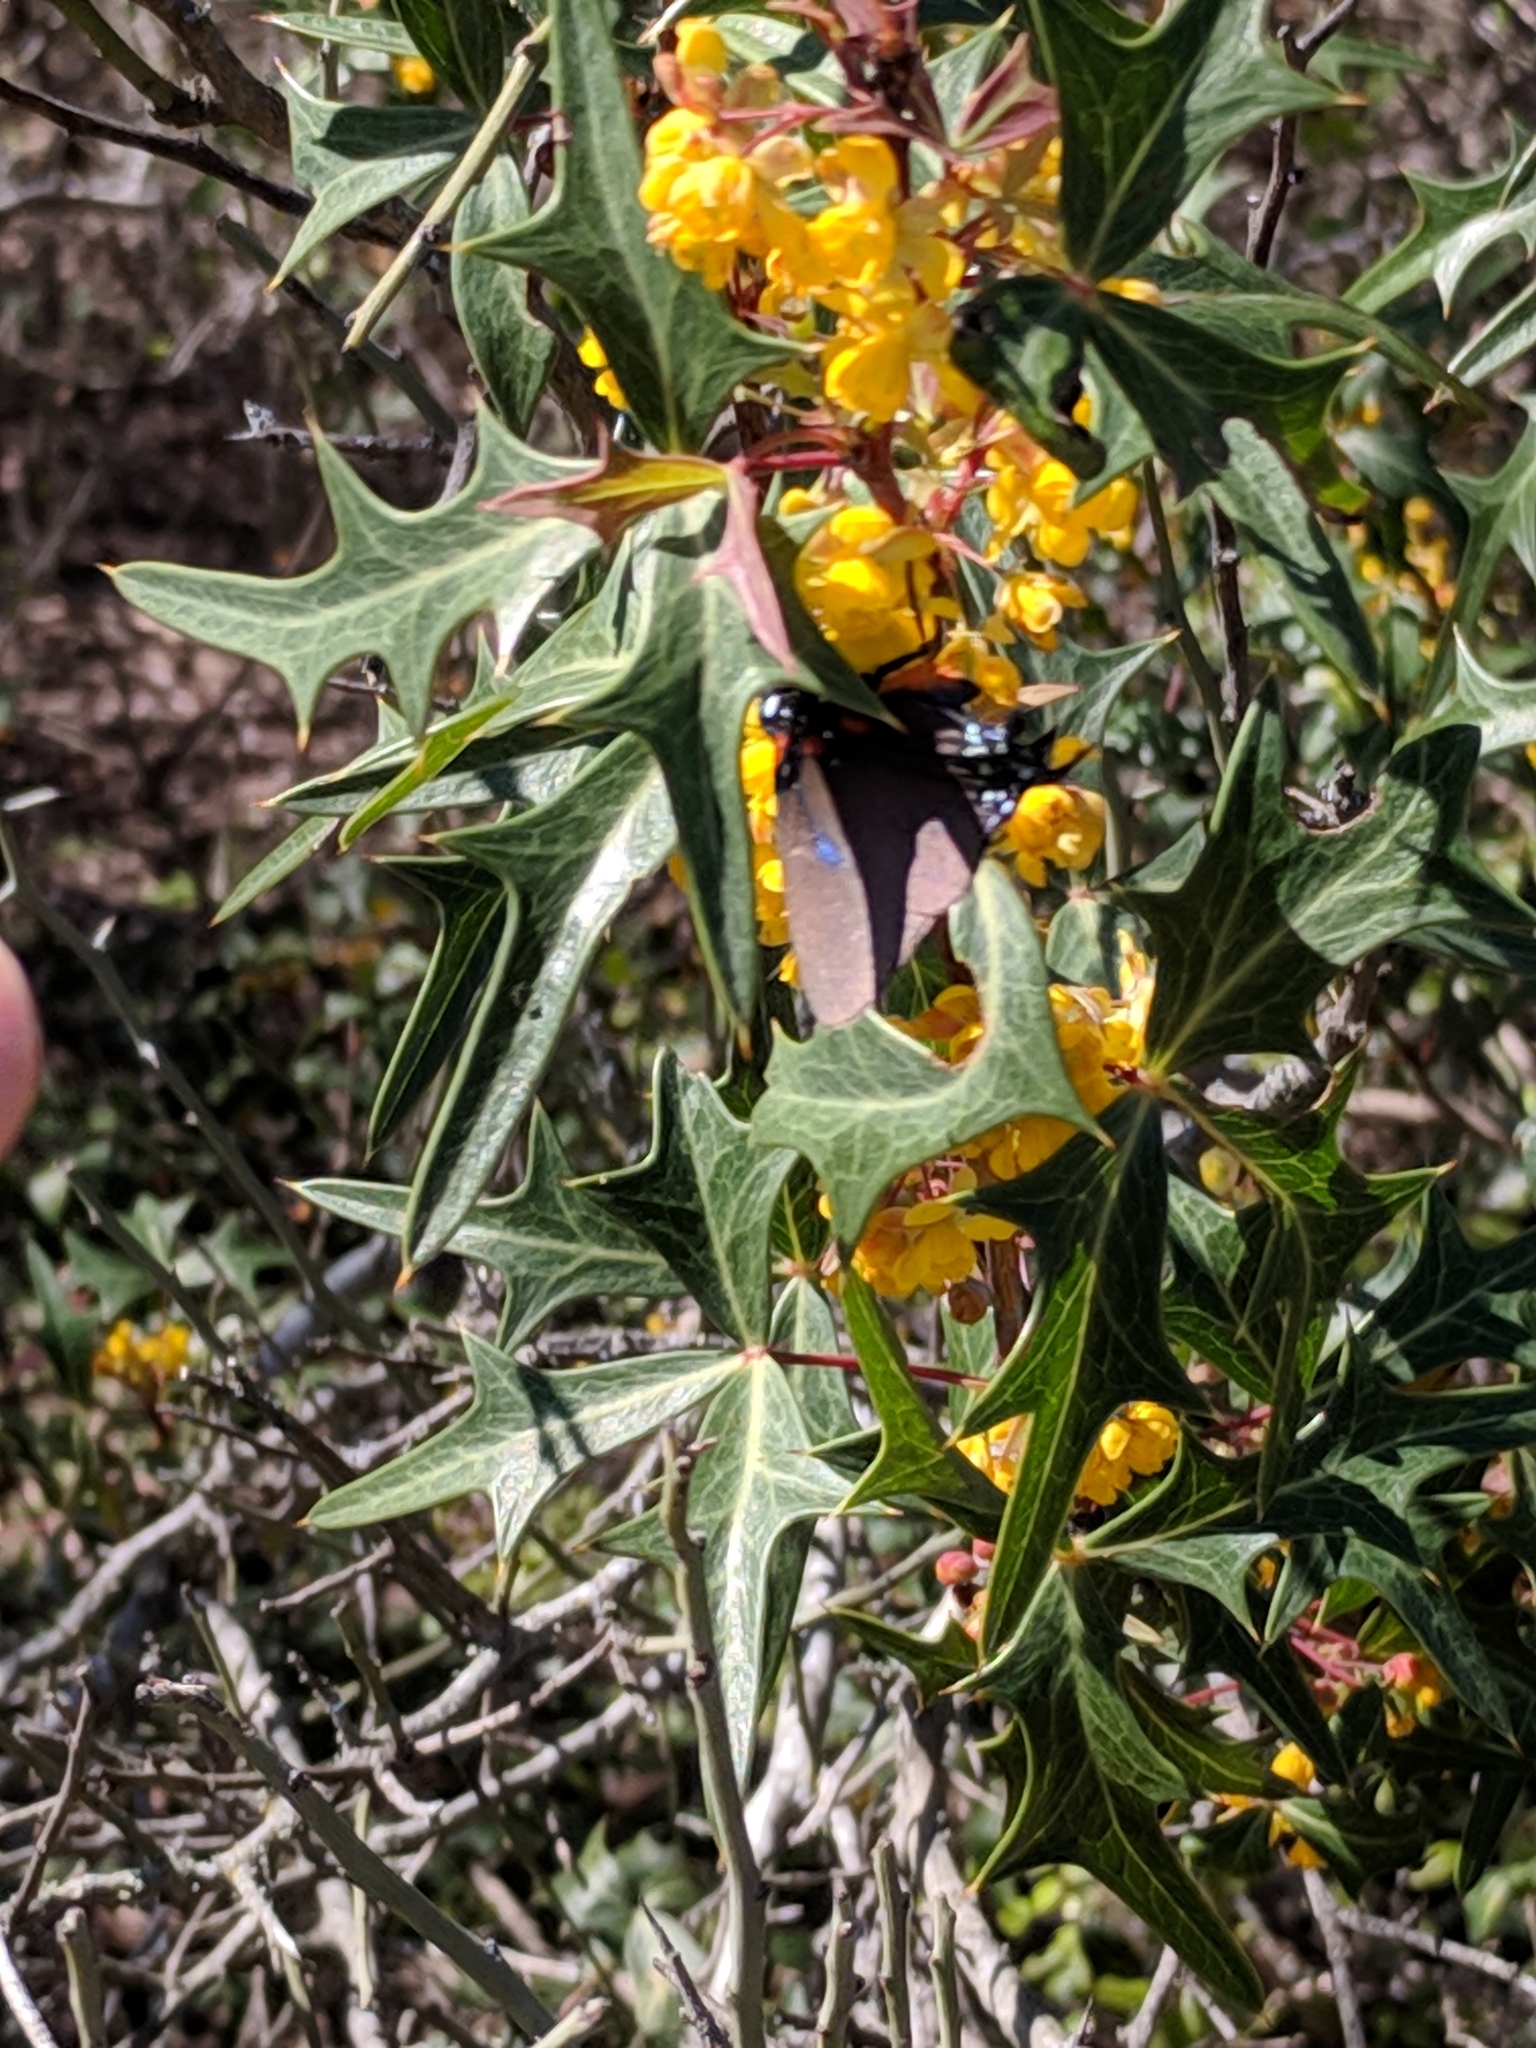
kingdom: Animalia
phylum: Arthropoda
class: Insecta
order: Lepidoptera
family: Lycaenidae
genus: Atlides
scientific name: Atlides halesus
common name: Great purple hairstreak
